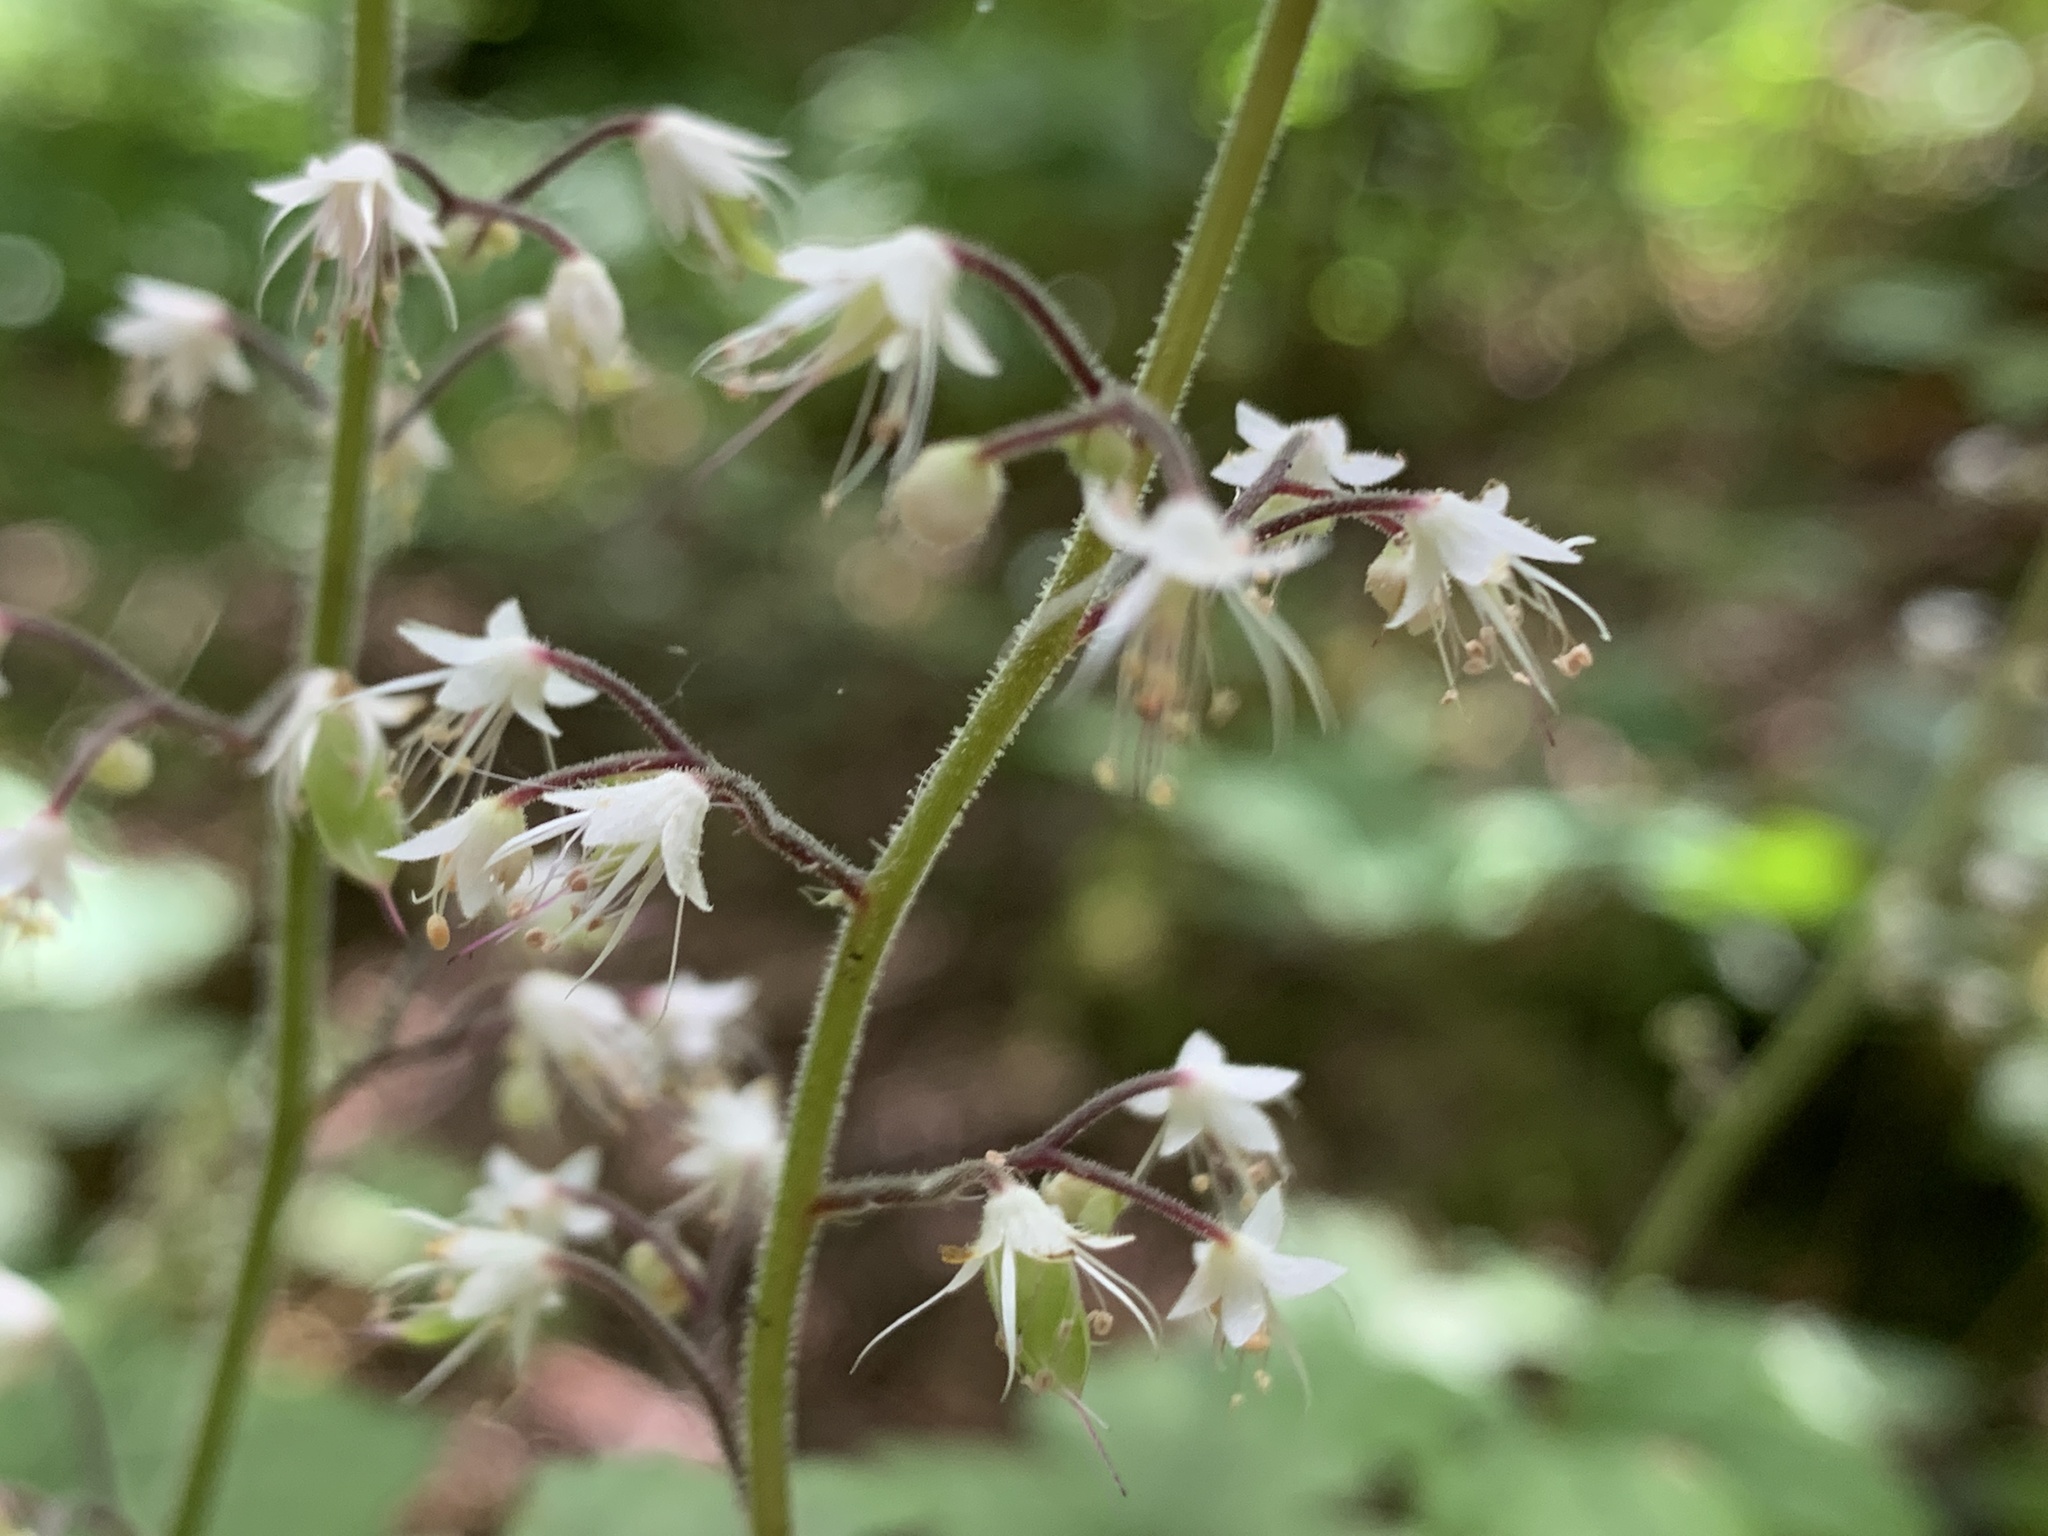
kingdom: Plantae
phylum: Tracheophyta
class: Magnoliopsida
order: Saxifragales
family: Saxifragaceae
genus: Tiarella
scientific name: Tiarella trifoliata
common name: Sugar-scoop
